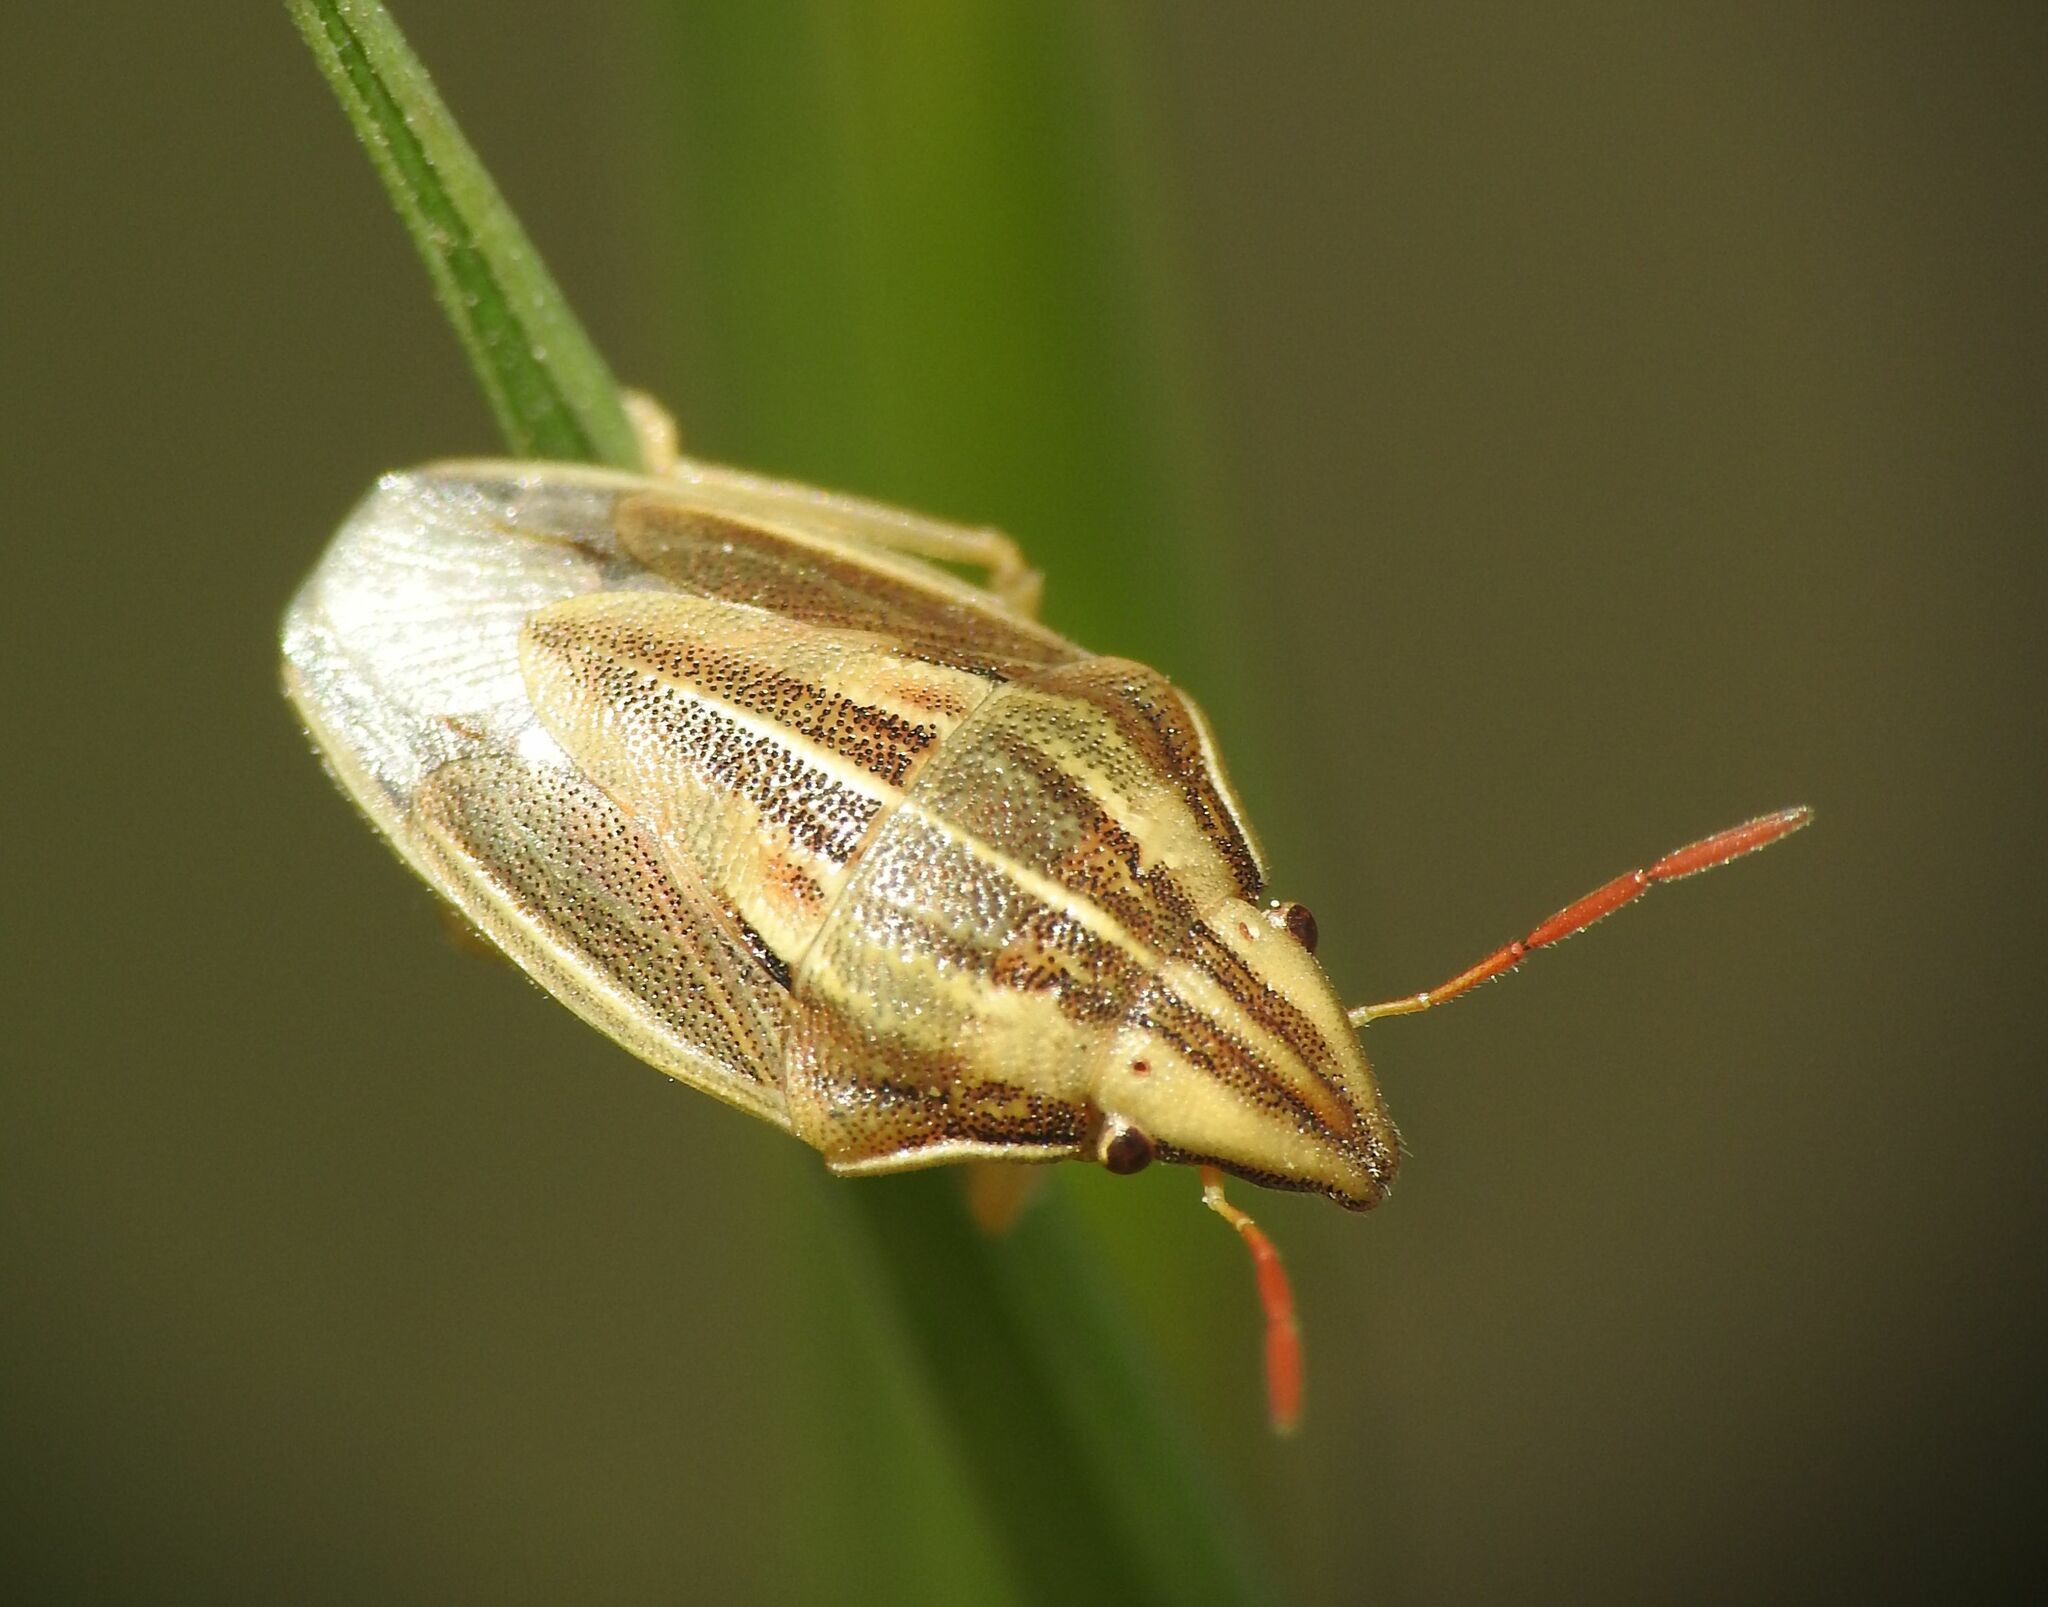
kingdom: Animalia
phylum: Arthropoda
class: Insecta
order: Hemiptera
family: Pentatomidae
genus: Aelia
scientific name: Aelia acuminata
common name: Bishop's mitre
